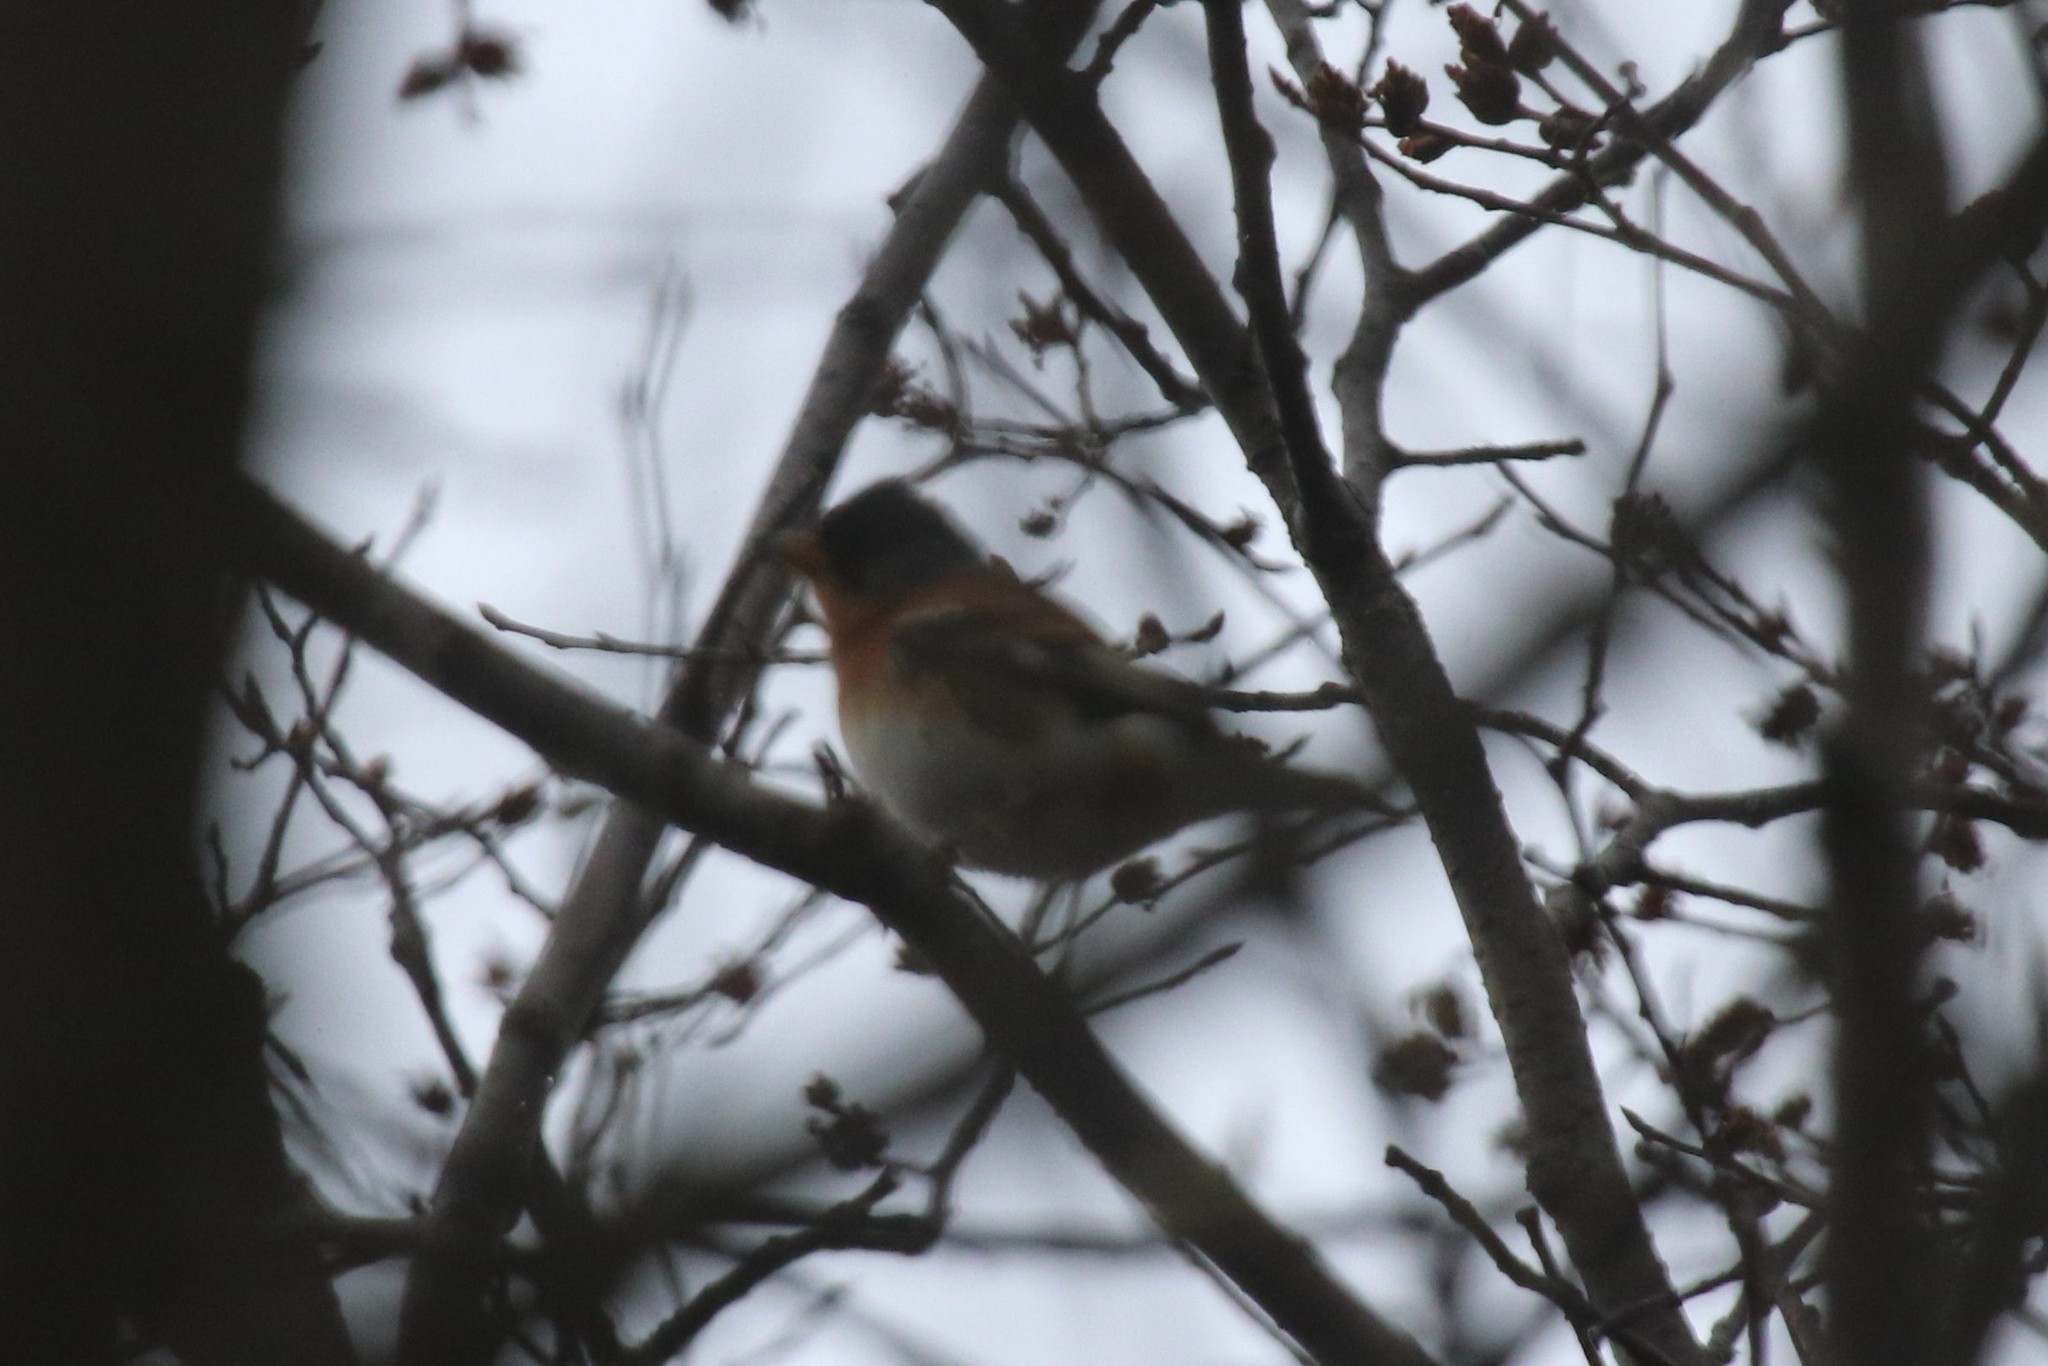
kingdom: Animalia
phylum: Chordata
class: Aves
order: Passeriformes
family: Fringillidae
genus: Fringilla
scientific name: Fringilla montifringilla
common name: Brambling
